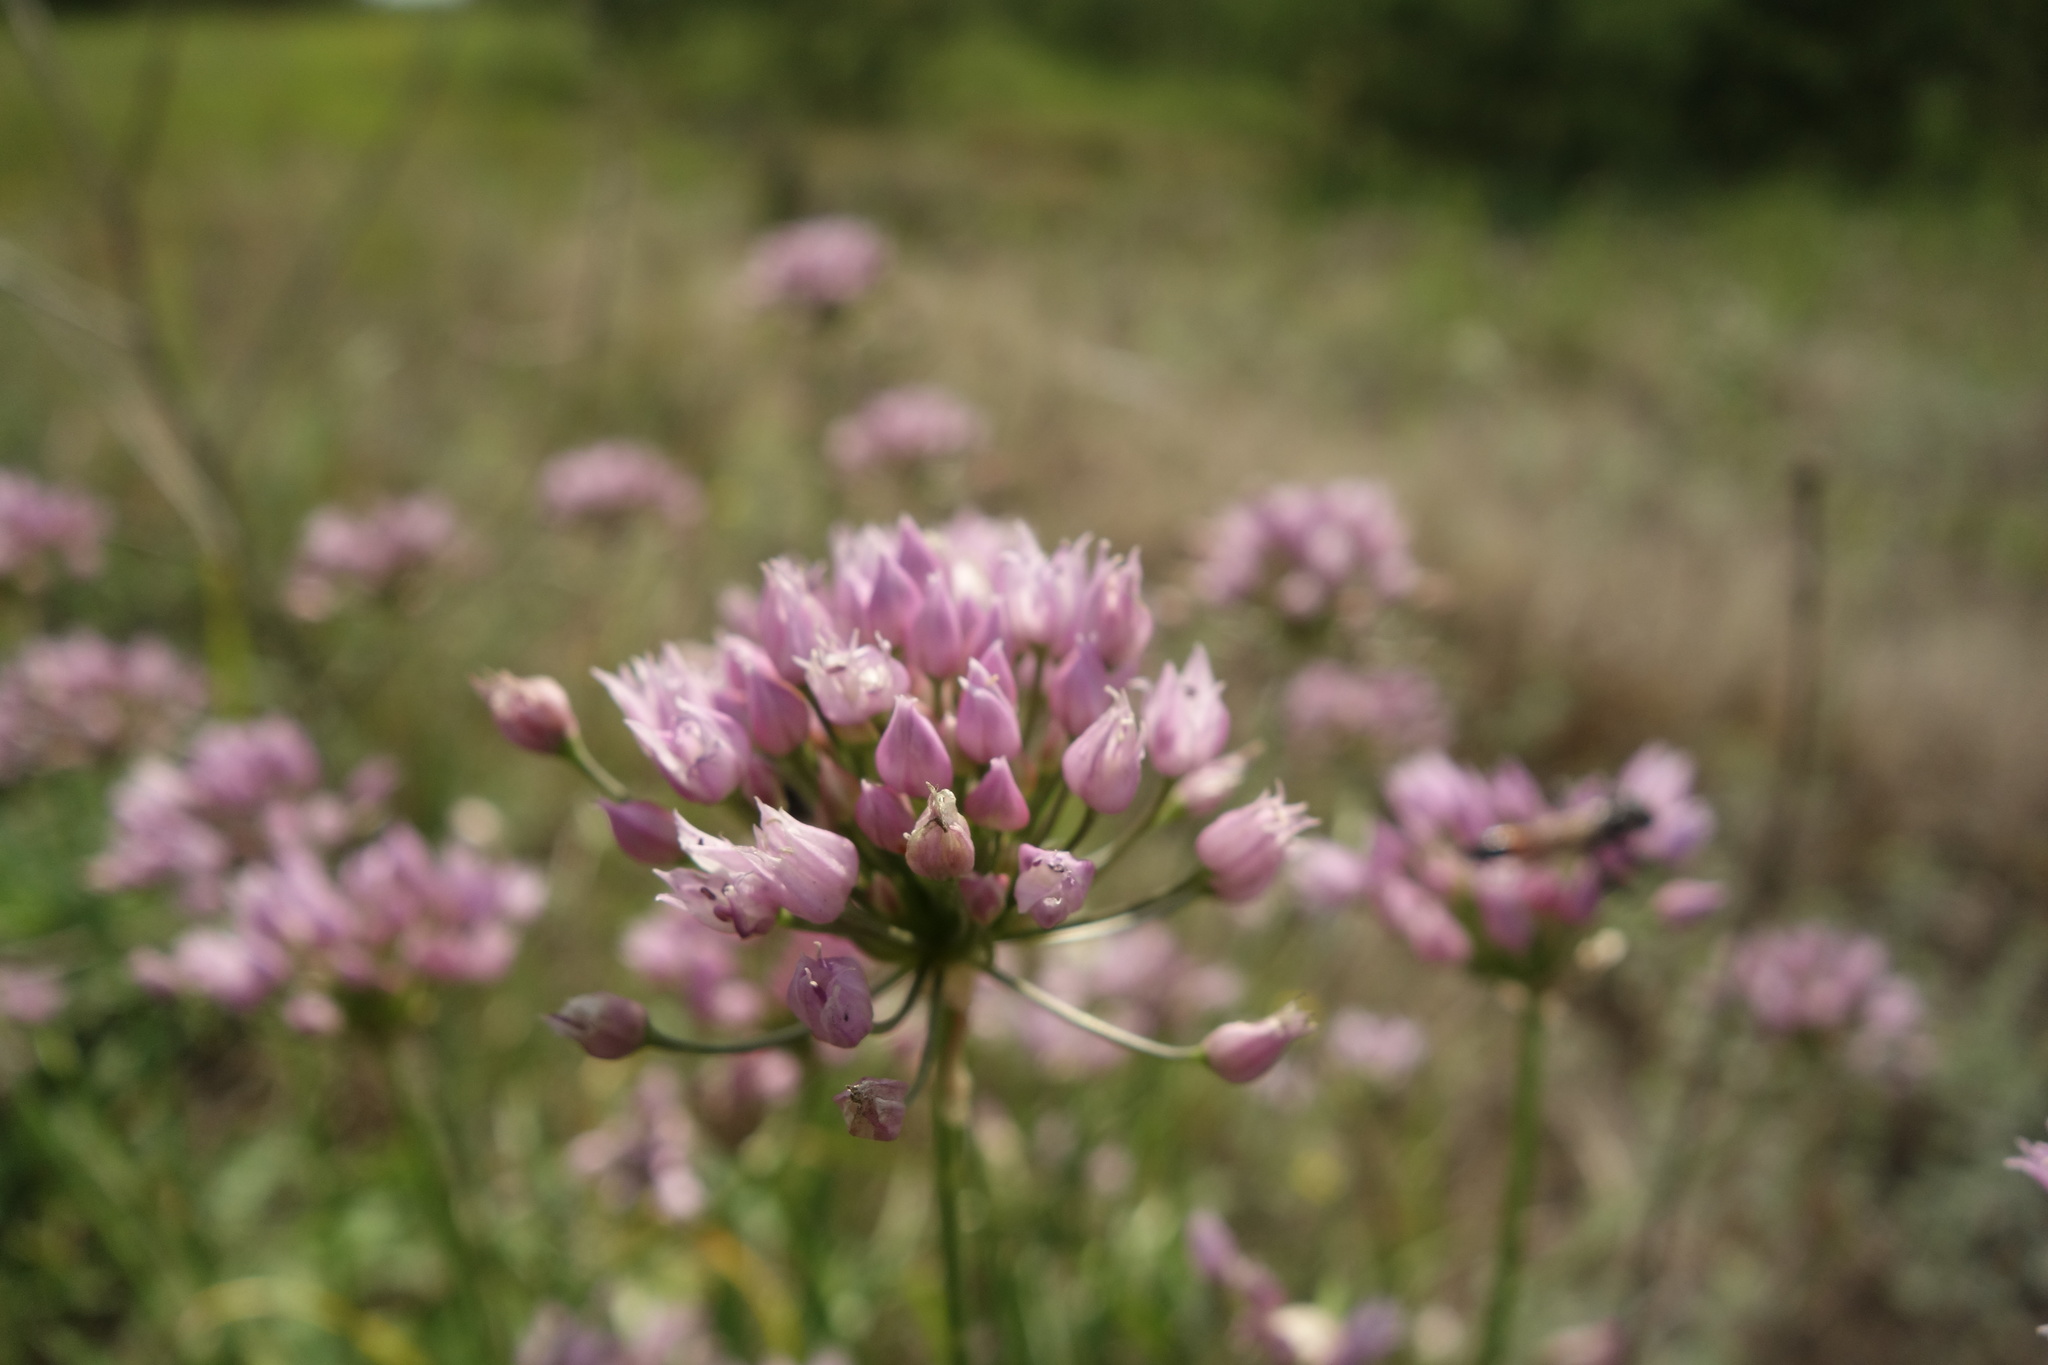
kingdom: Plantae
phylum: Tracheophyta
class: Liliopsida
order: Asparagales
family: Amaryllidaceae
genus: Allium
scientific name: Allium angulosum
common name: Mouse garlic
